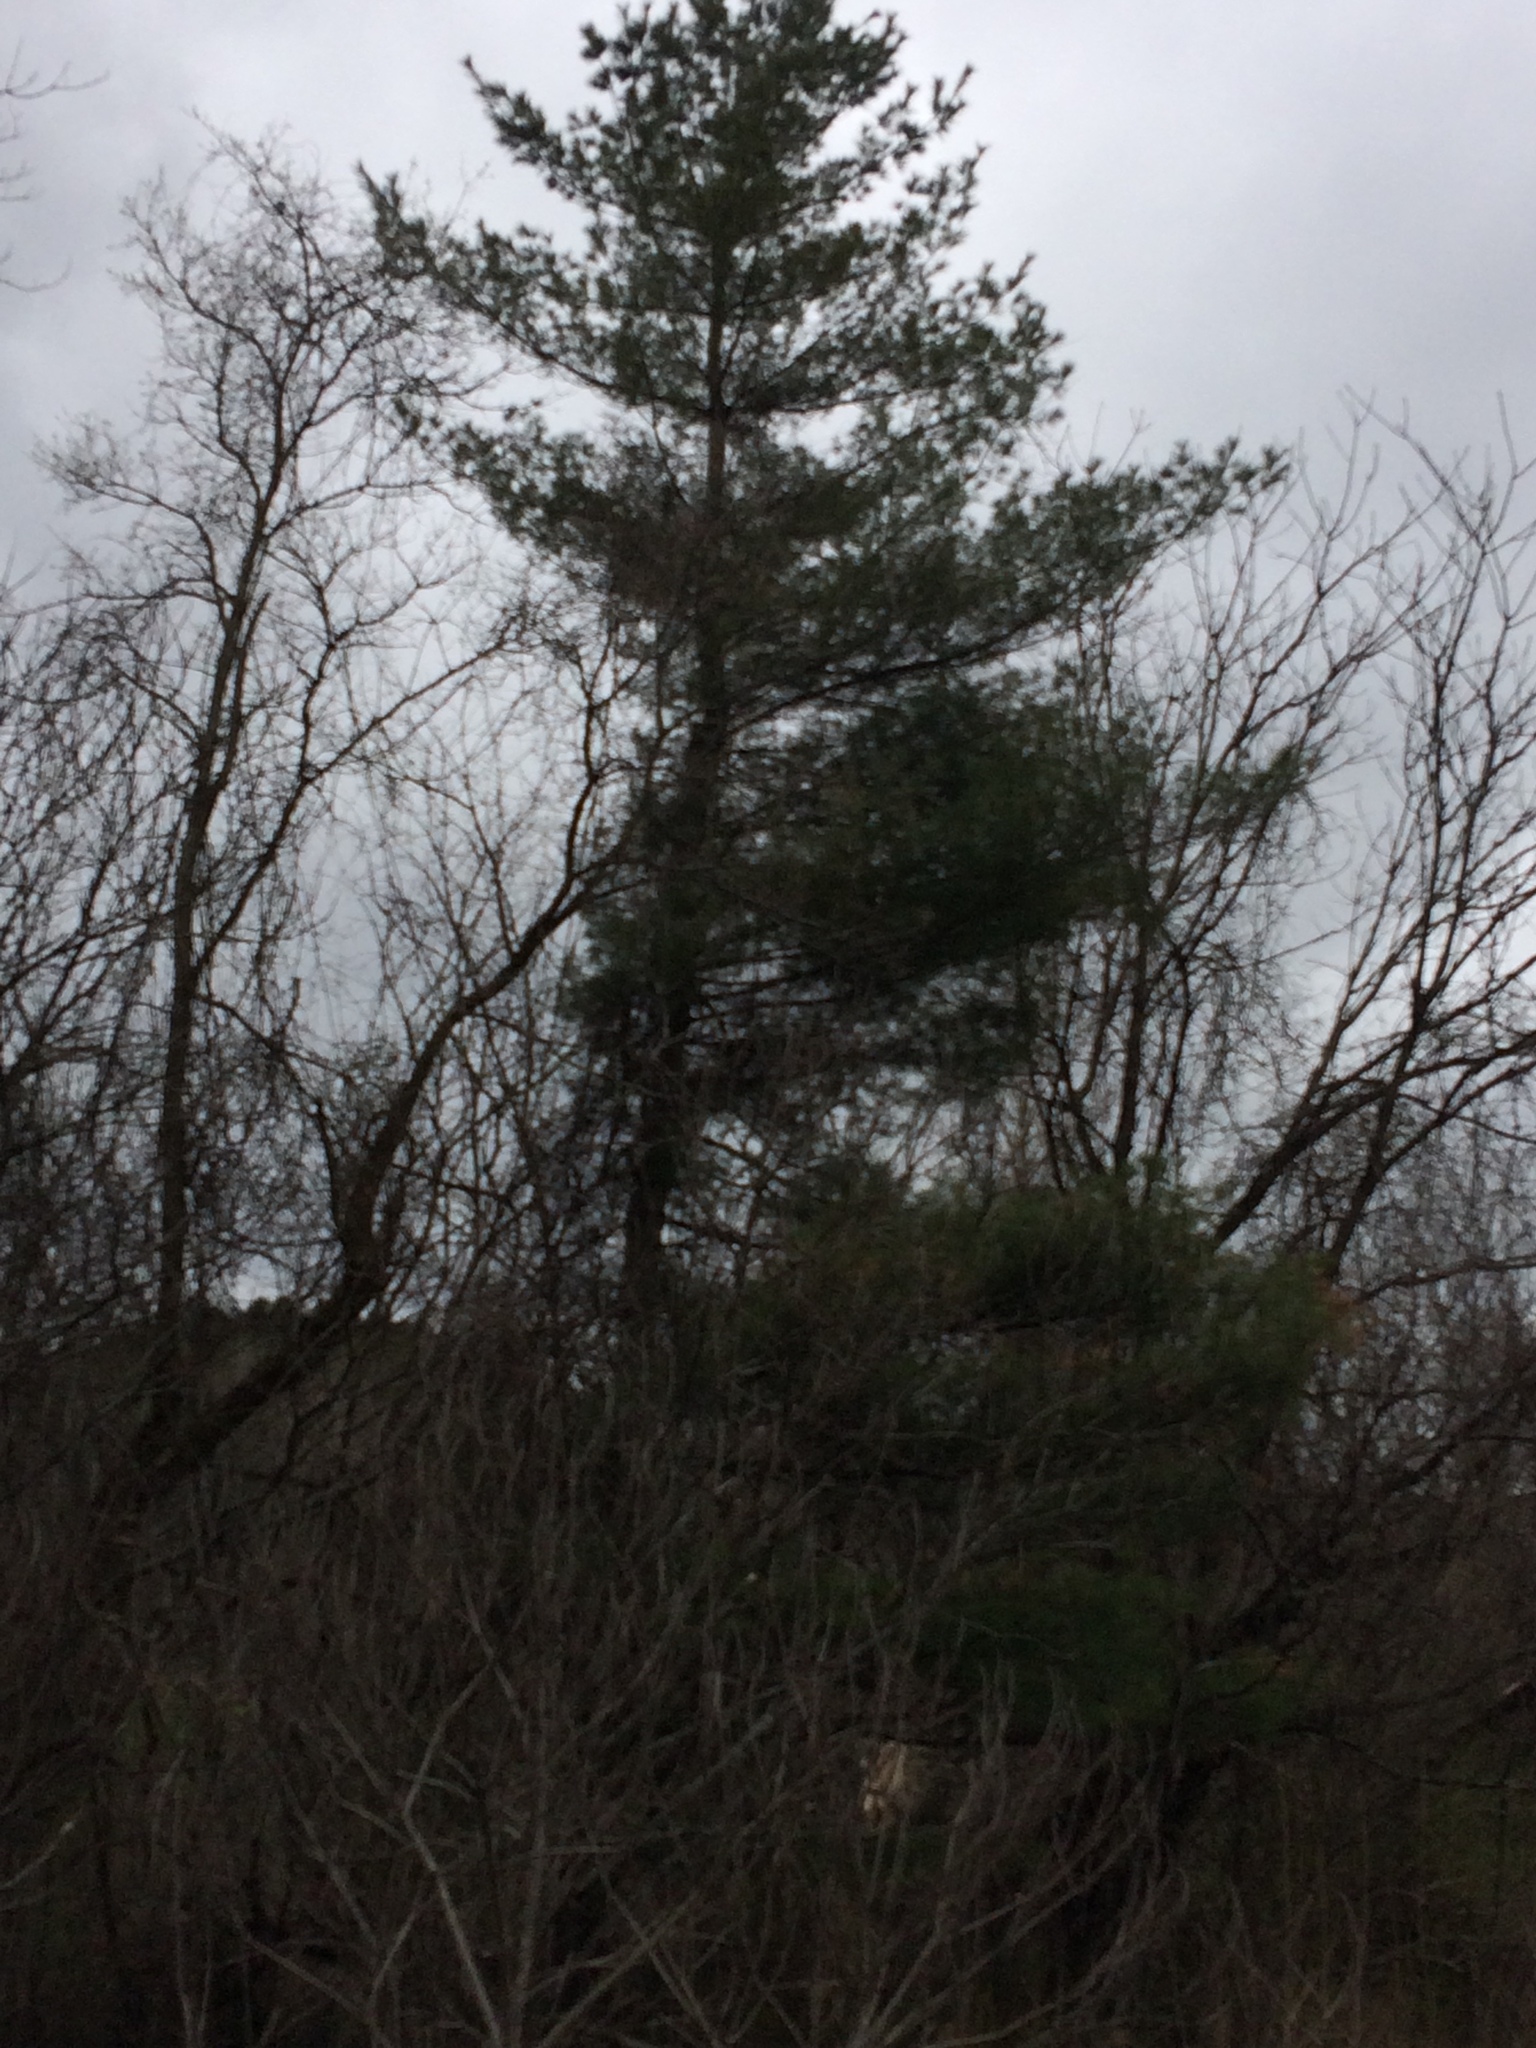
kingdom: Plantae
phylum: Tracheophyta
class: Pinopsida
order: Pinales
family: Pinaceae
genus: Pinus
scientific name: Pinus strobus
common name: Weymouth pine
